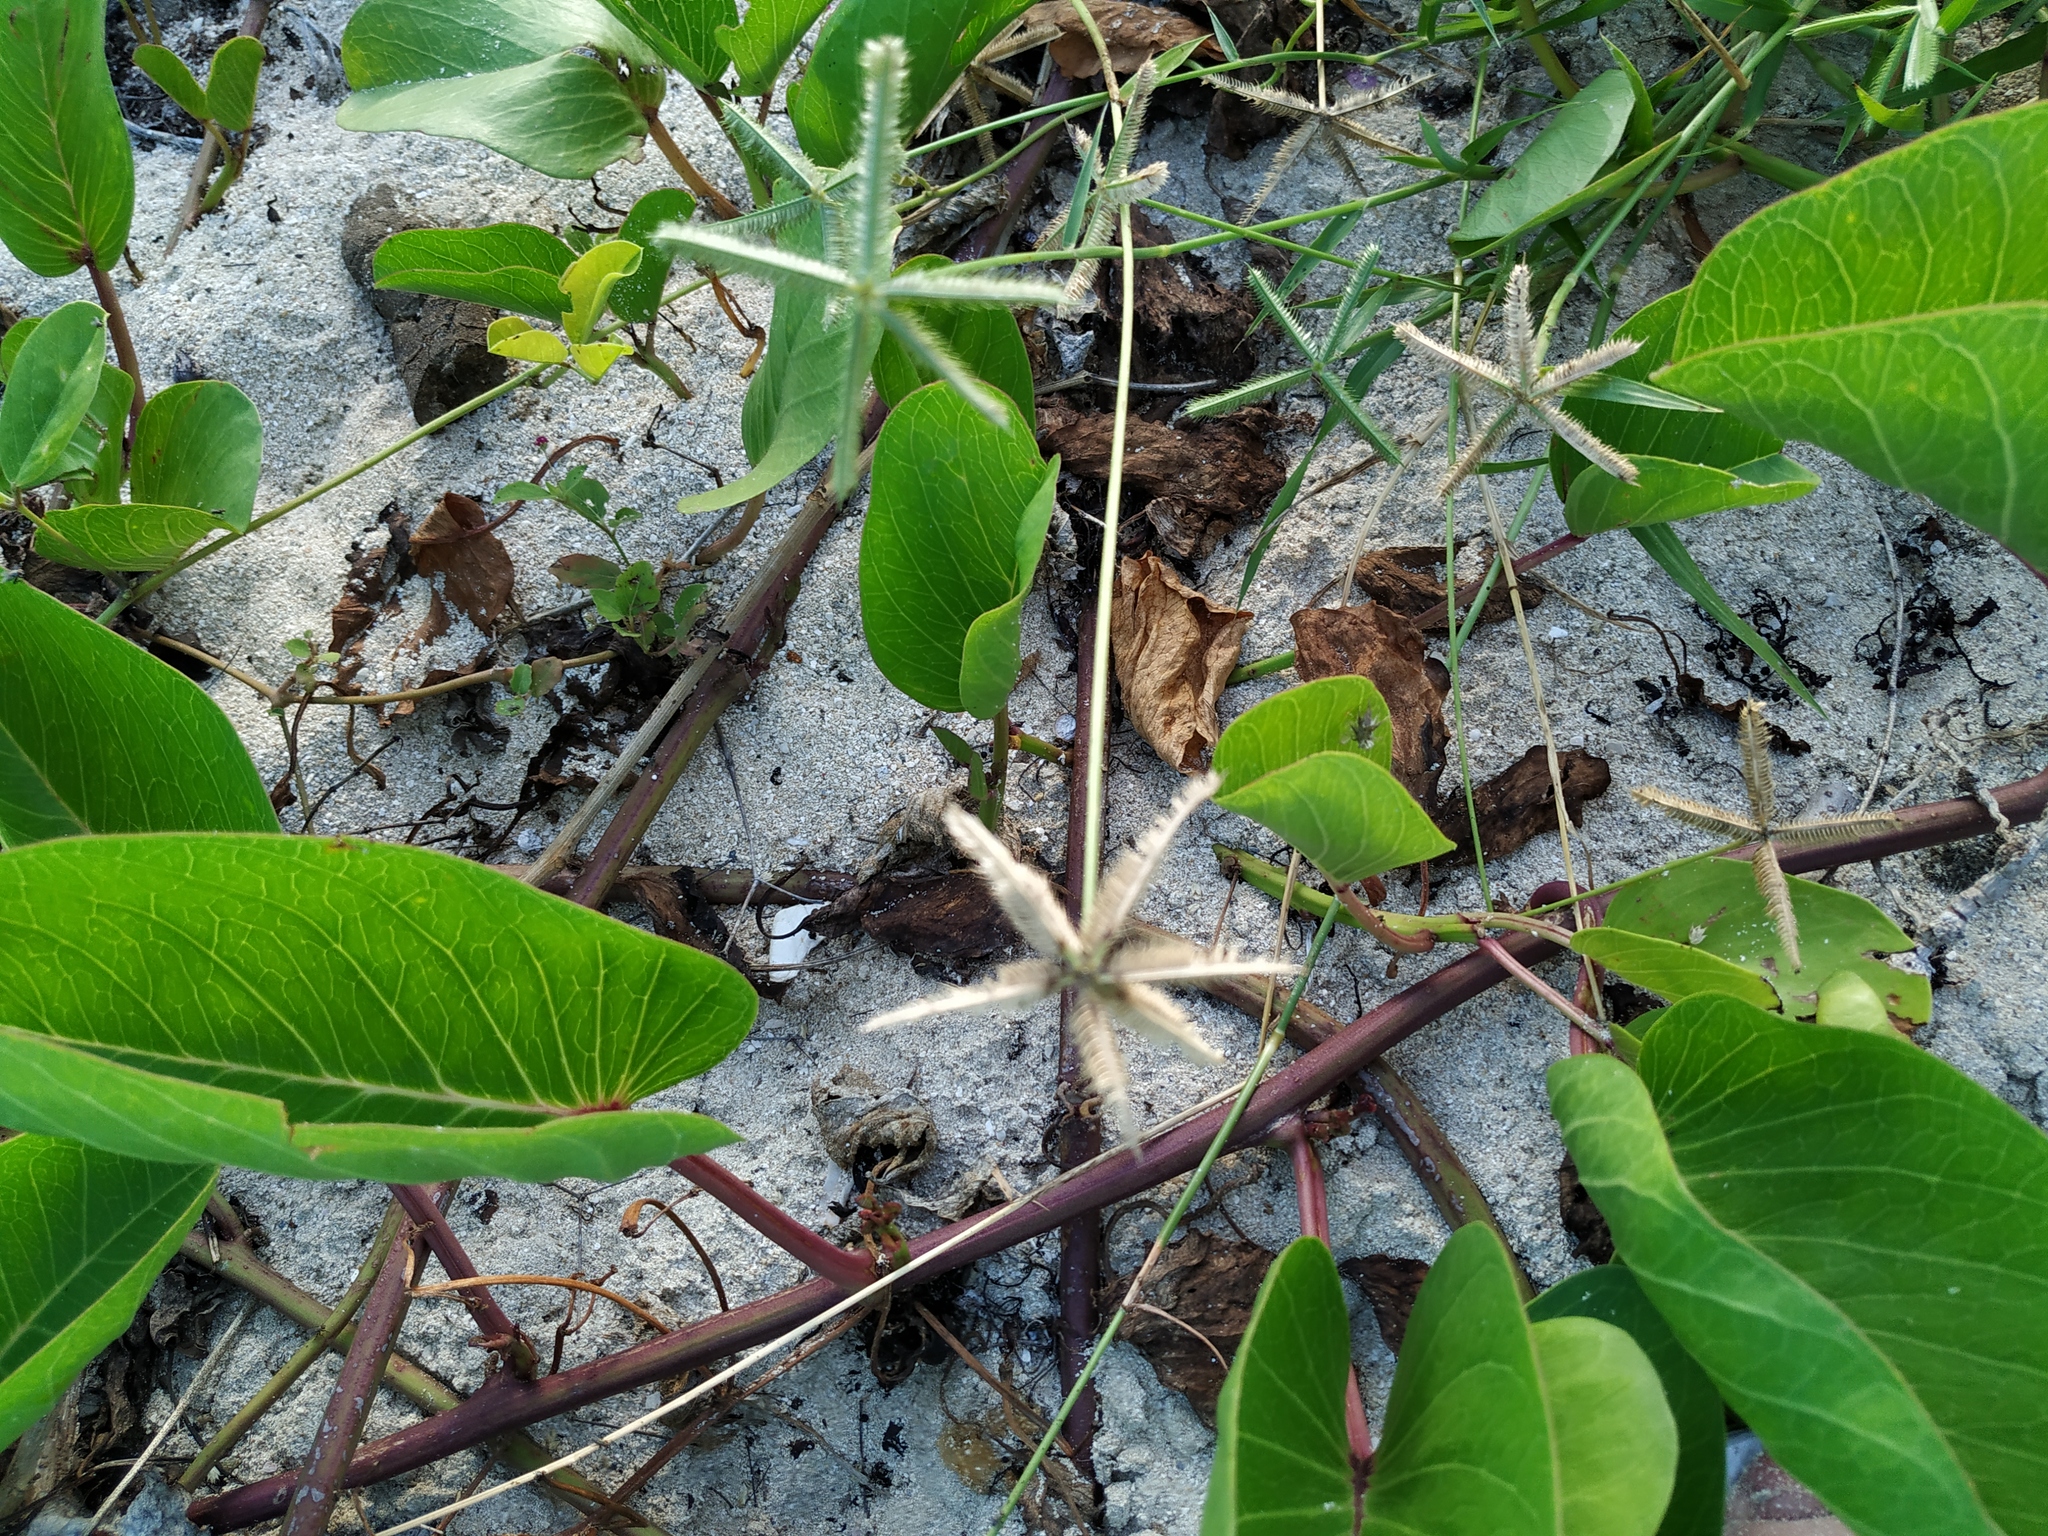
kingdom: Plantae
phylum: Tracheophyta
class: Liliopsida
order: Poales
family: Poaceae
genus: Dactyloctenium
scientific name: Dactyloctenium aegyptium
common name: Egyptian grass
